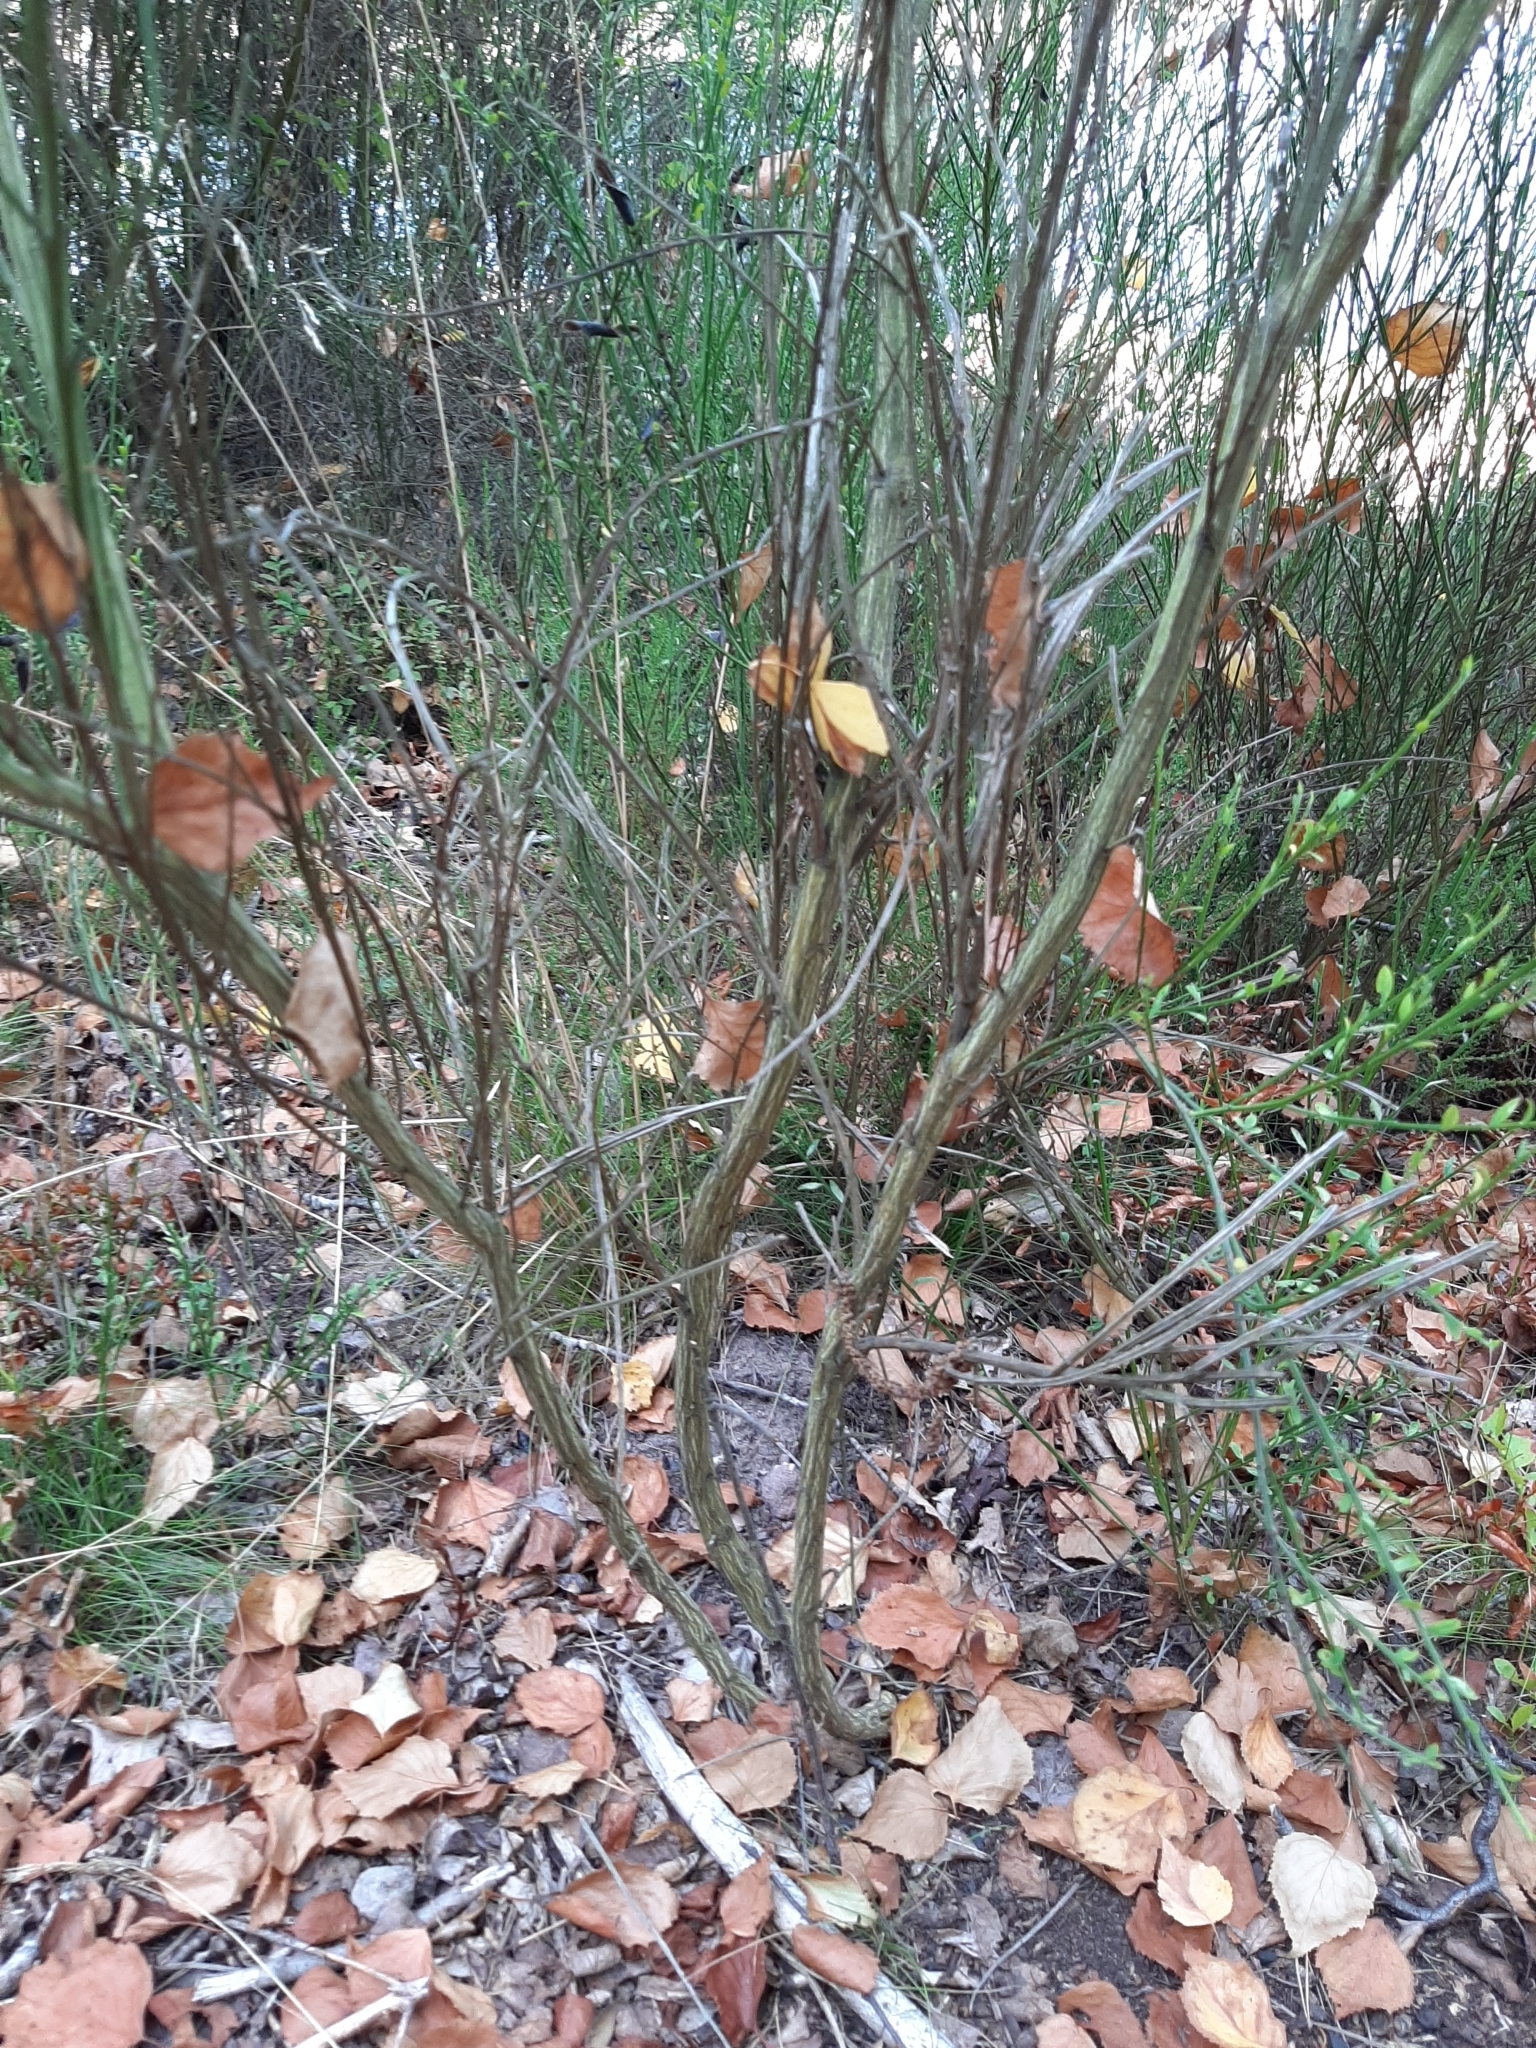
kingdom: Plantae
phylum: Tracheophyta
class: Magnoliopsida
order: Fabales
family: Fabaceae
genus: Cytisus
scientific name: Cytisus scoparius
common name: Scotch broom
